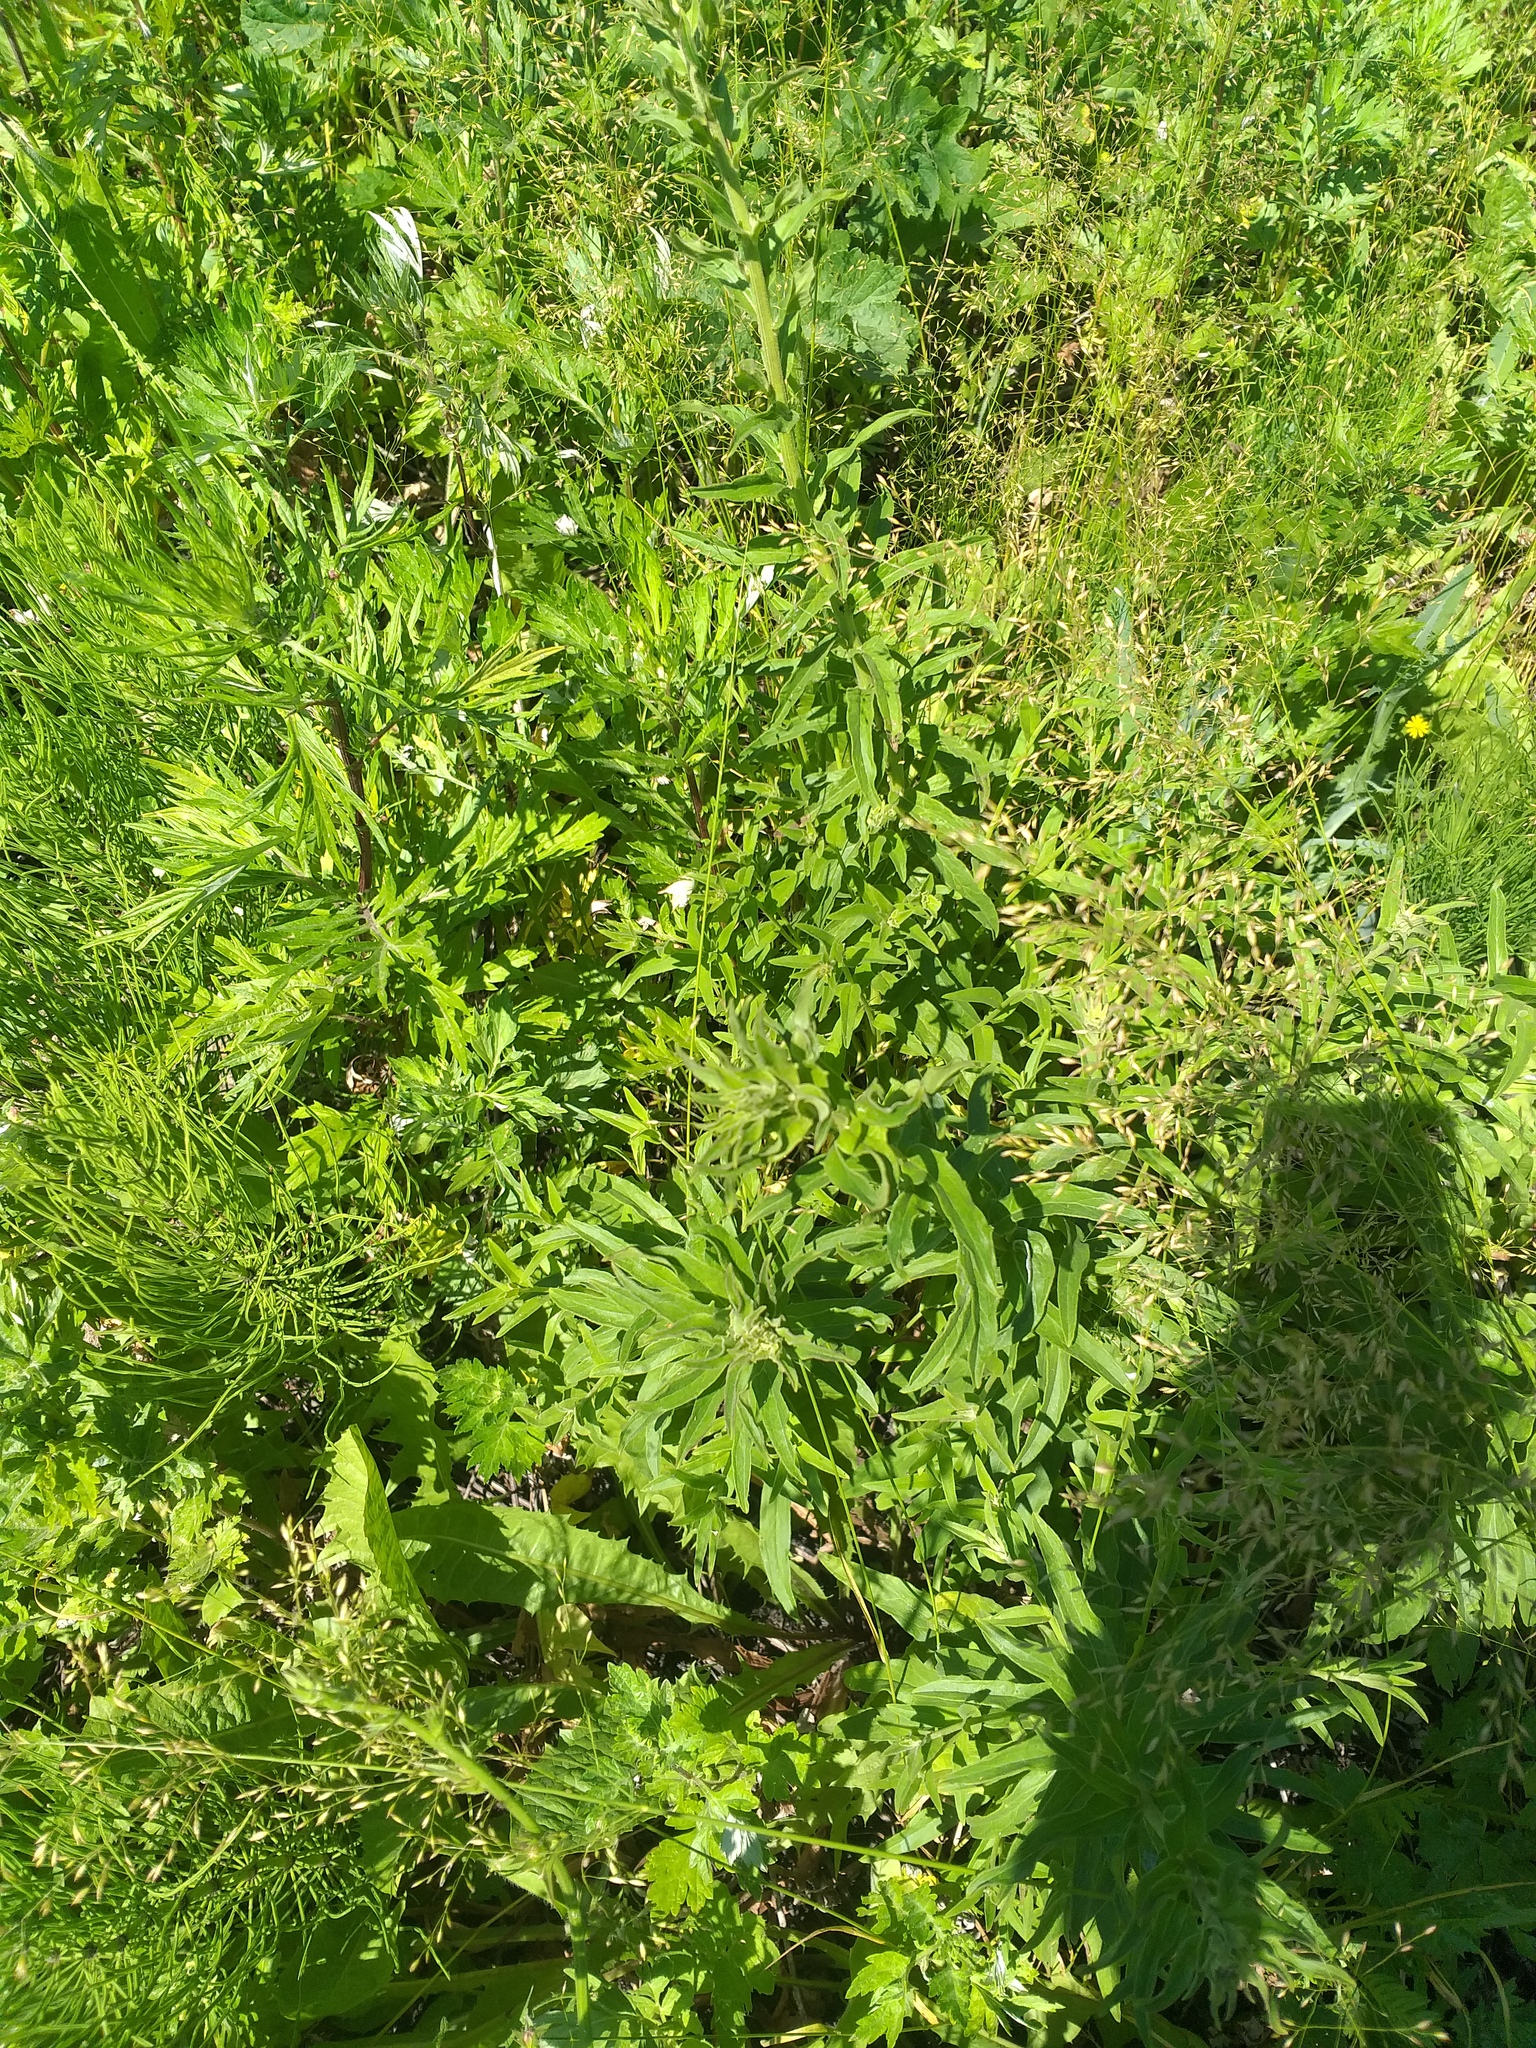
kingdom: Plantae
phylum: Tracheophyta
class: Magnoliopsida
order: Asterales
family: Asteraceae
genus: Hieracium
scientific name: Hieracium umbellatum
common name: Northern hawkweed
